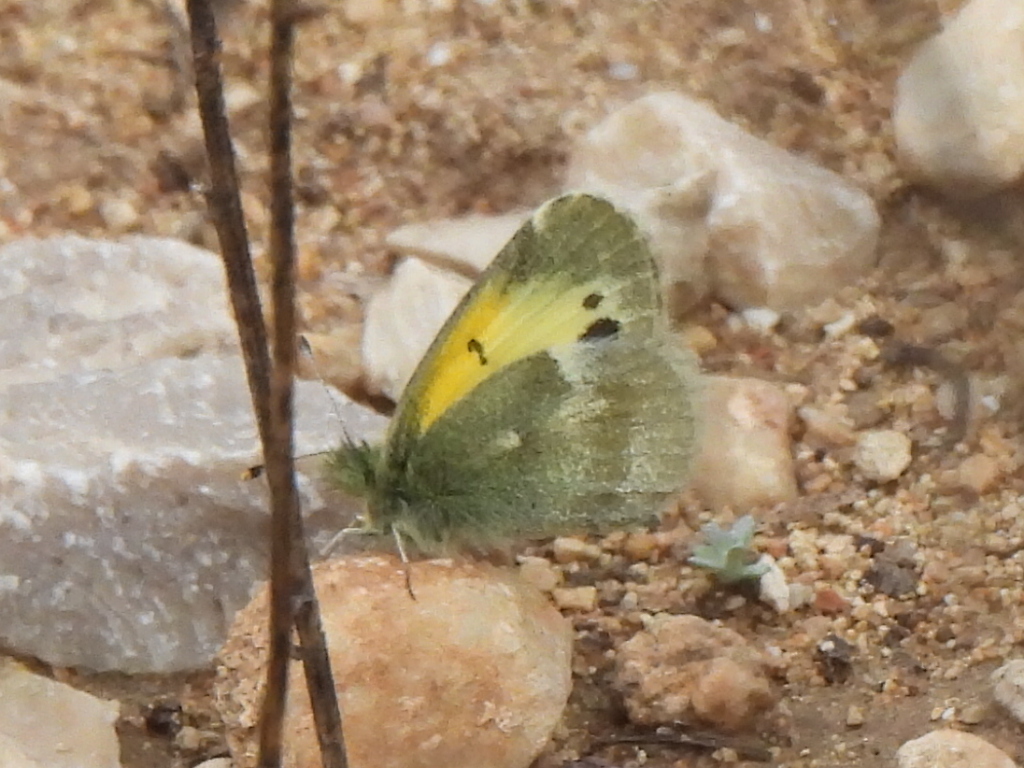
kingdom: Animalia
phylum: Arthropoda
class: Insecta
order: Lepidoptera
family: Pieridae
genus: Nathalis
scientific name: Nathalis iole
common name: Dainty sulphur
